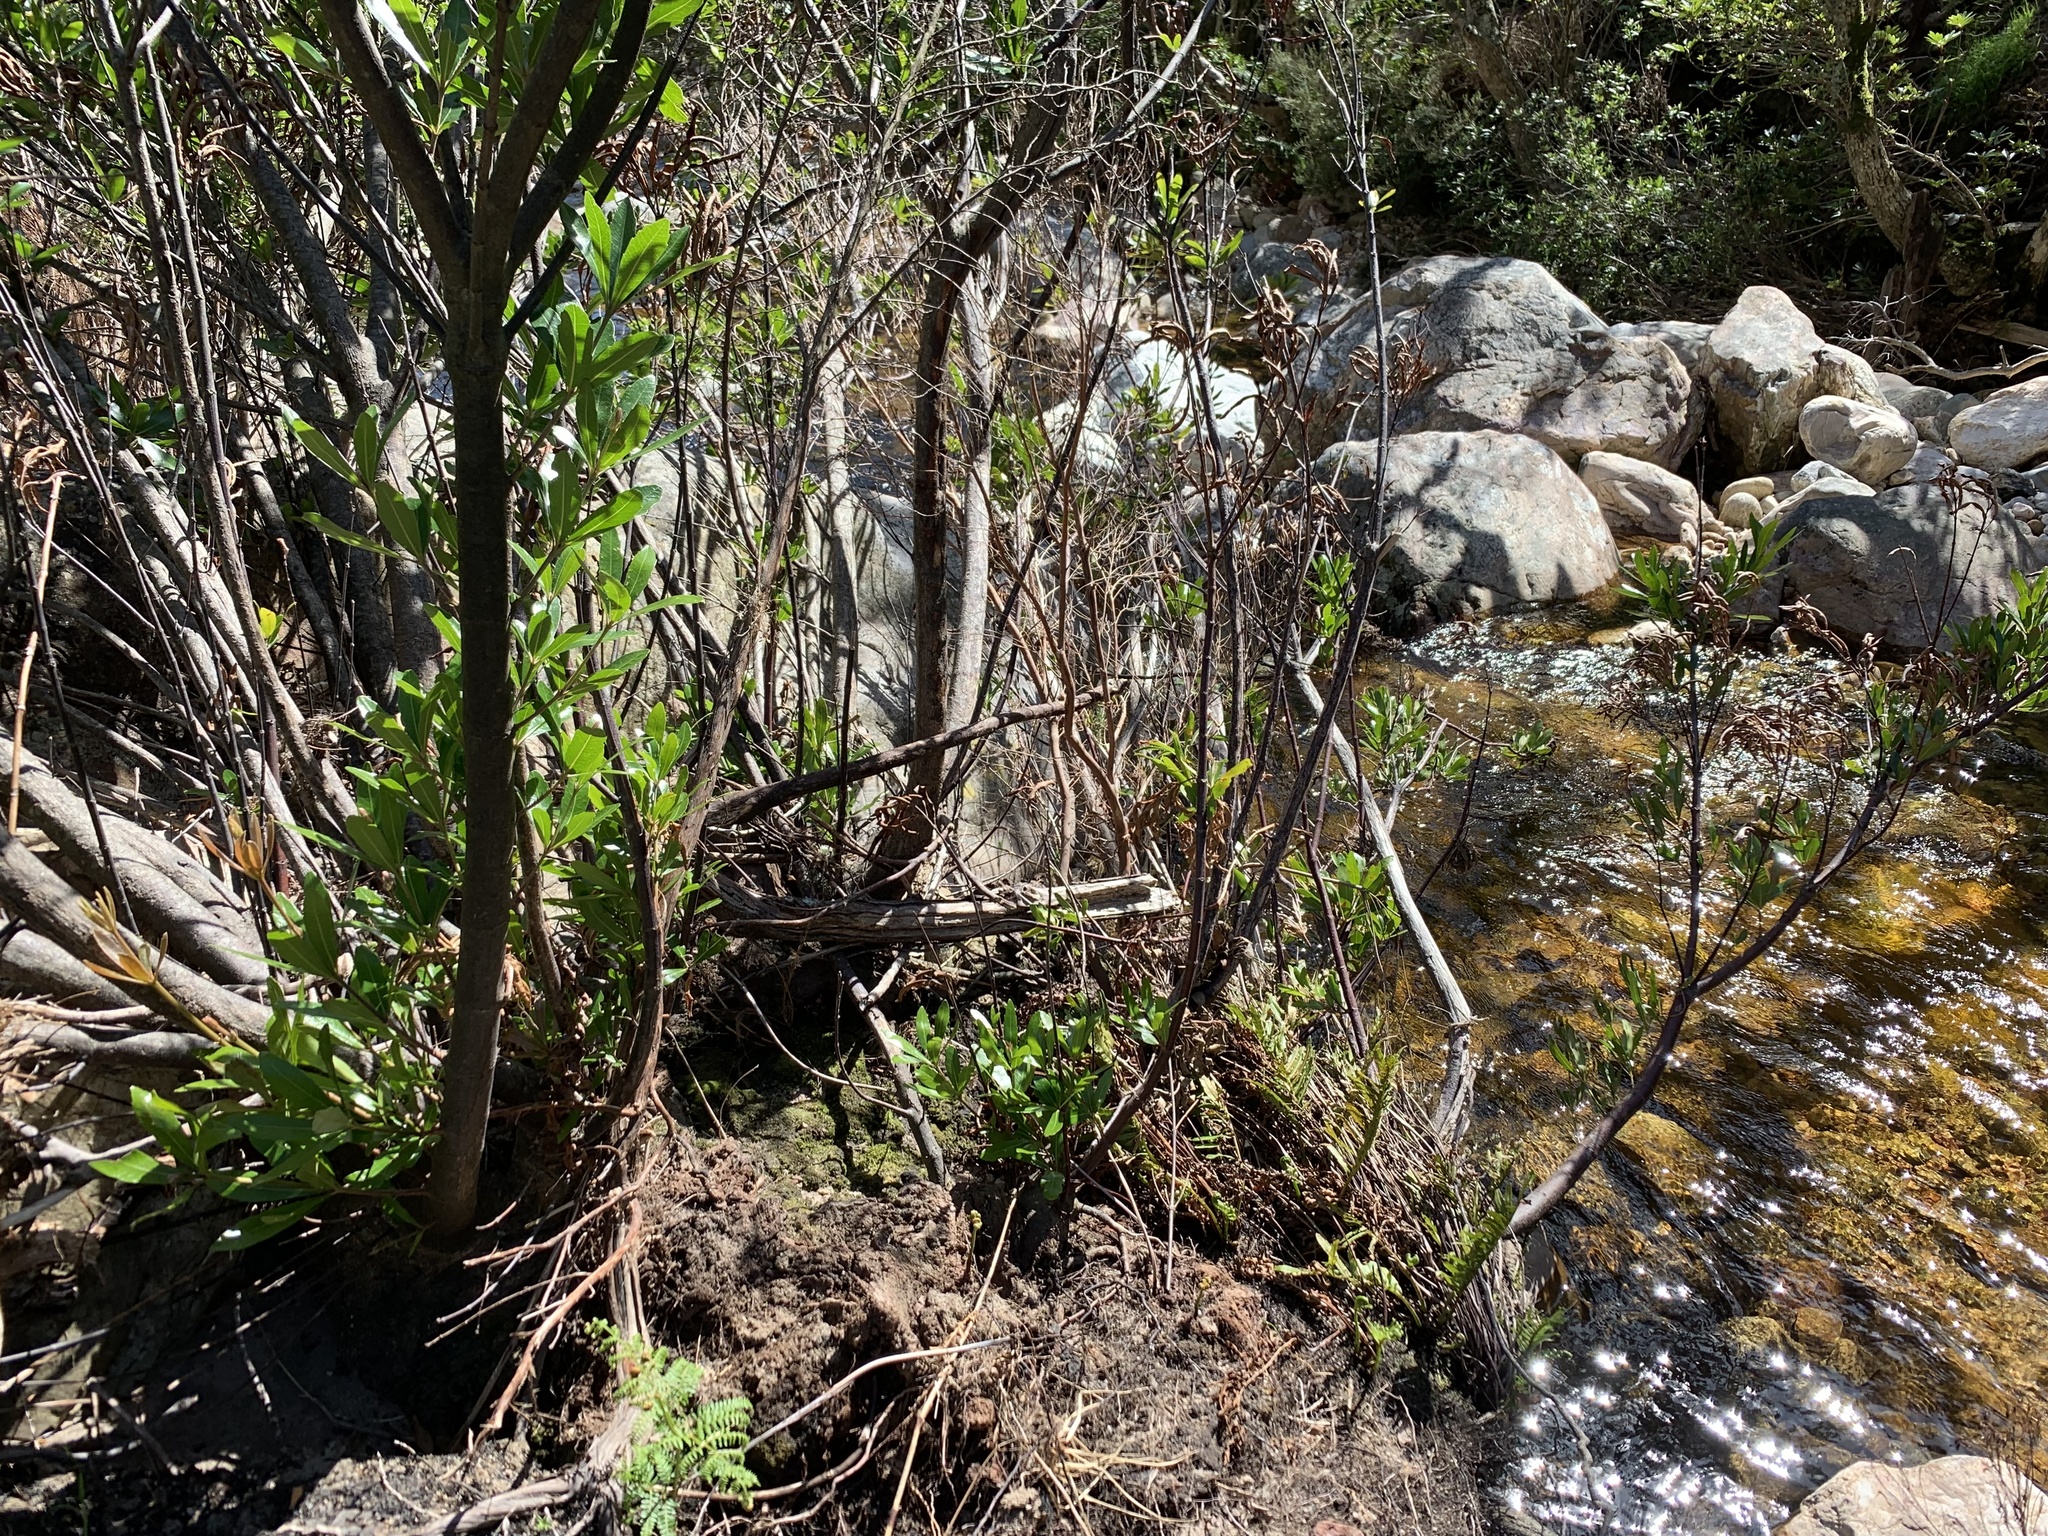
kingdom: Plantae
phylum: Tracheophyta
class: Magnoliopsida
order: Proteales
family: Proteaceae
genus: Brabejum
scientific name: Brabejum stellatifolium
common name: Wild almond
